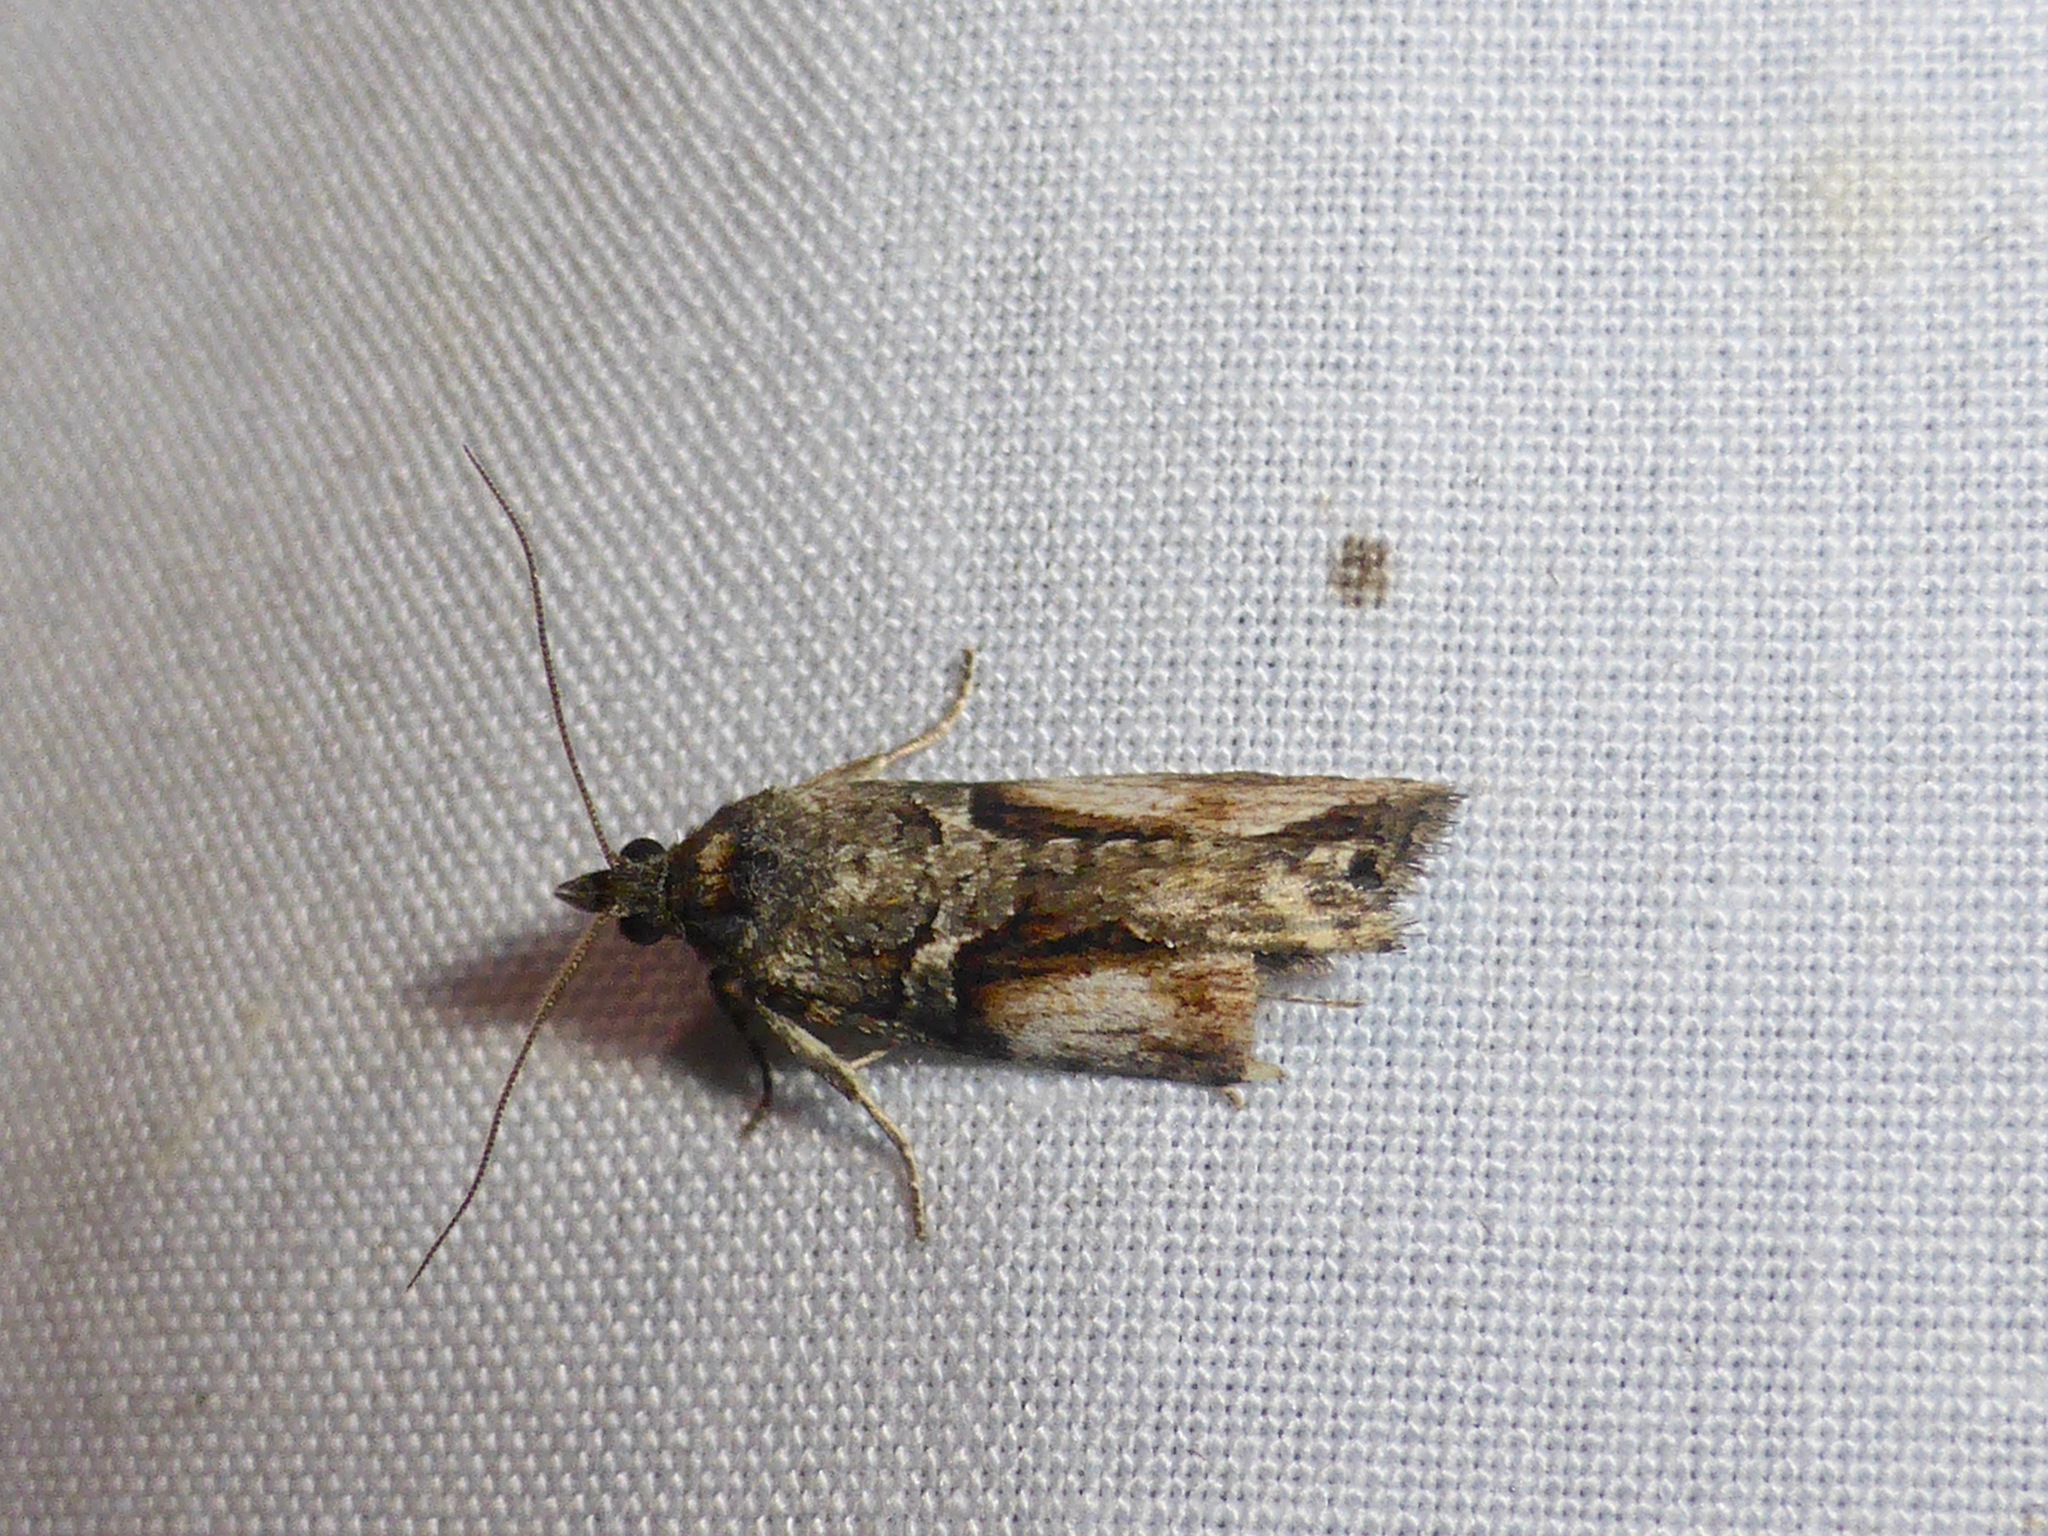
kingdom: Animalia
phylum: Arthropoda
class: Insecta
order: Lepidoptera
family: Tortricidae
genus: Harmologa
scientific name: Harmologa scoliastis
